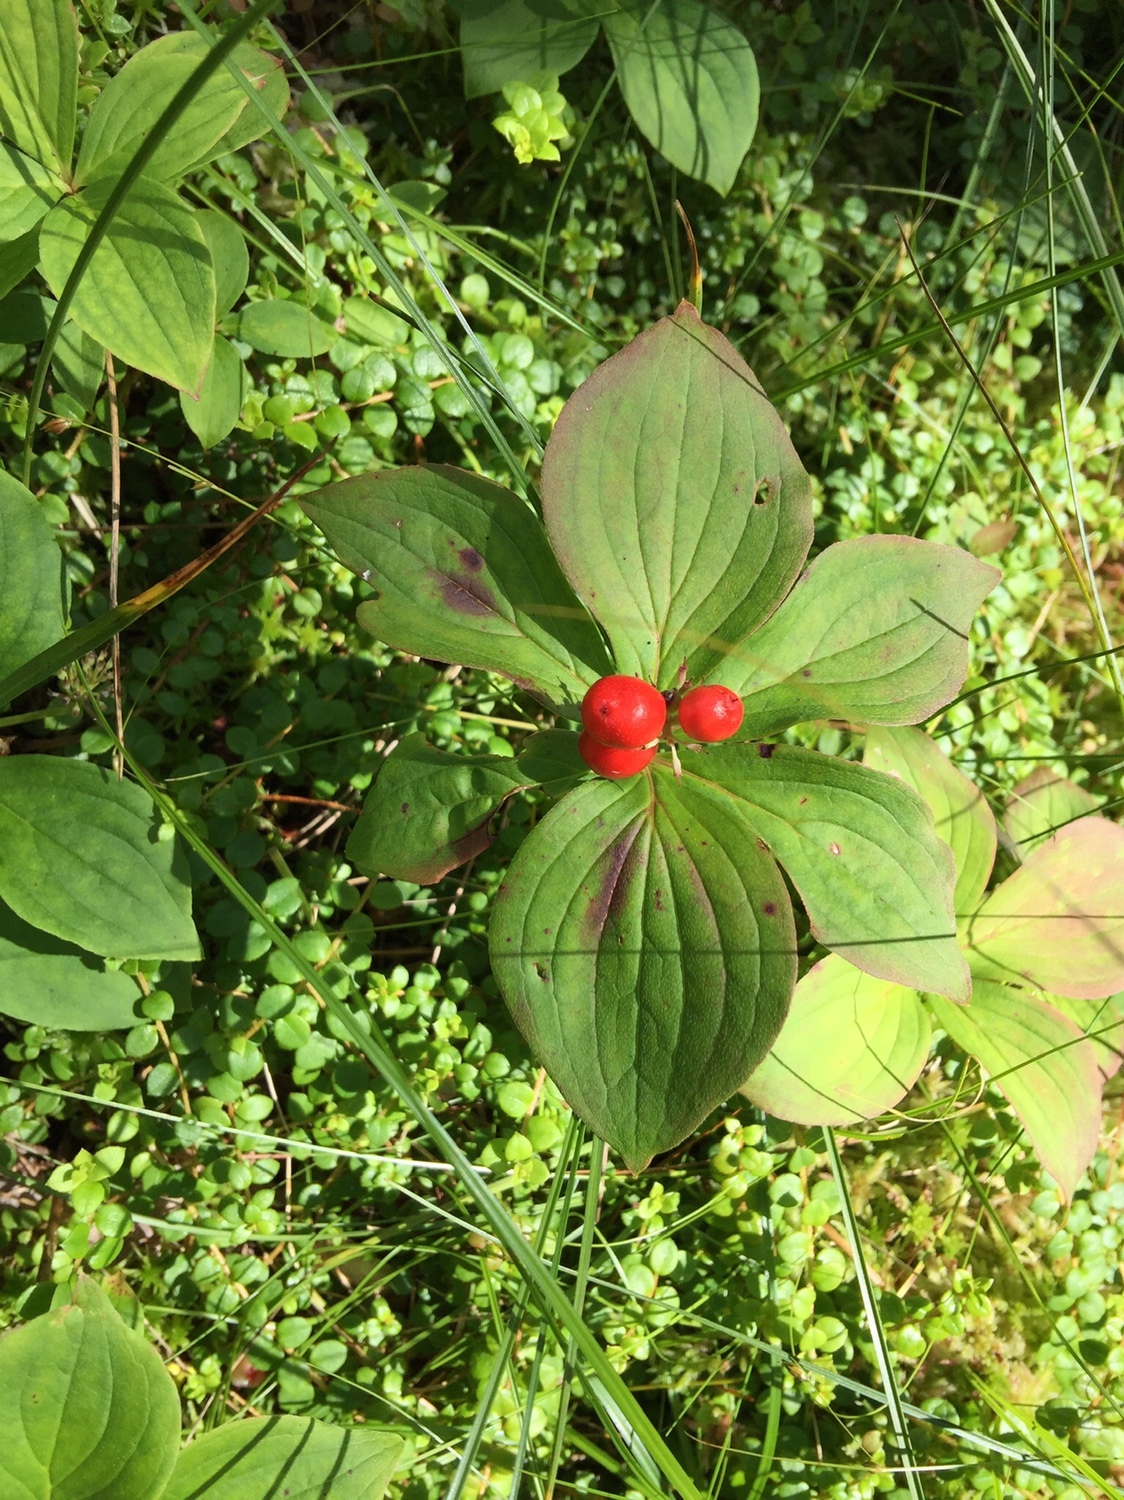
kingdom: Plantae
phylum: Tracheophyta
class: Magnoliopsida
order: Cornales
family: Cornaceae
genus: Cornus
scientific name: Cornus canadensis
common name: Creeping dogwood
